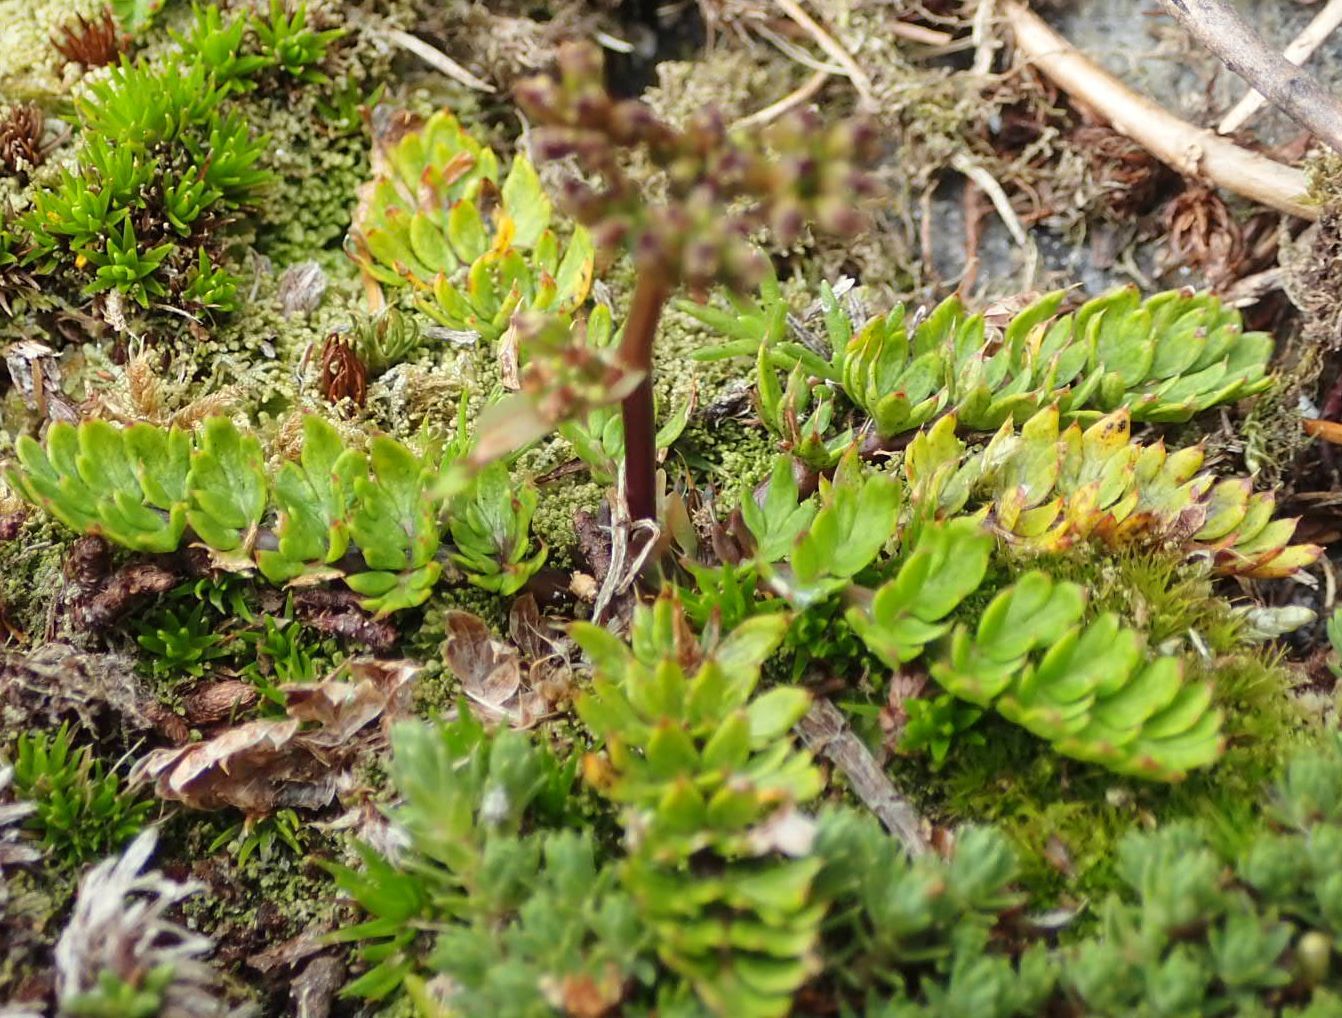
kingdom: Plantae
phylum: Tracheophyta
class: Magnoliopsida
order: Apiales
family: Apiaceae
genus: Anisotome
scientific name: Anisotome flexuosa
